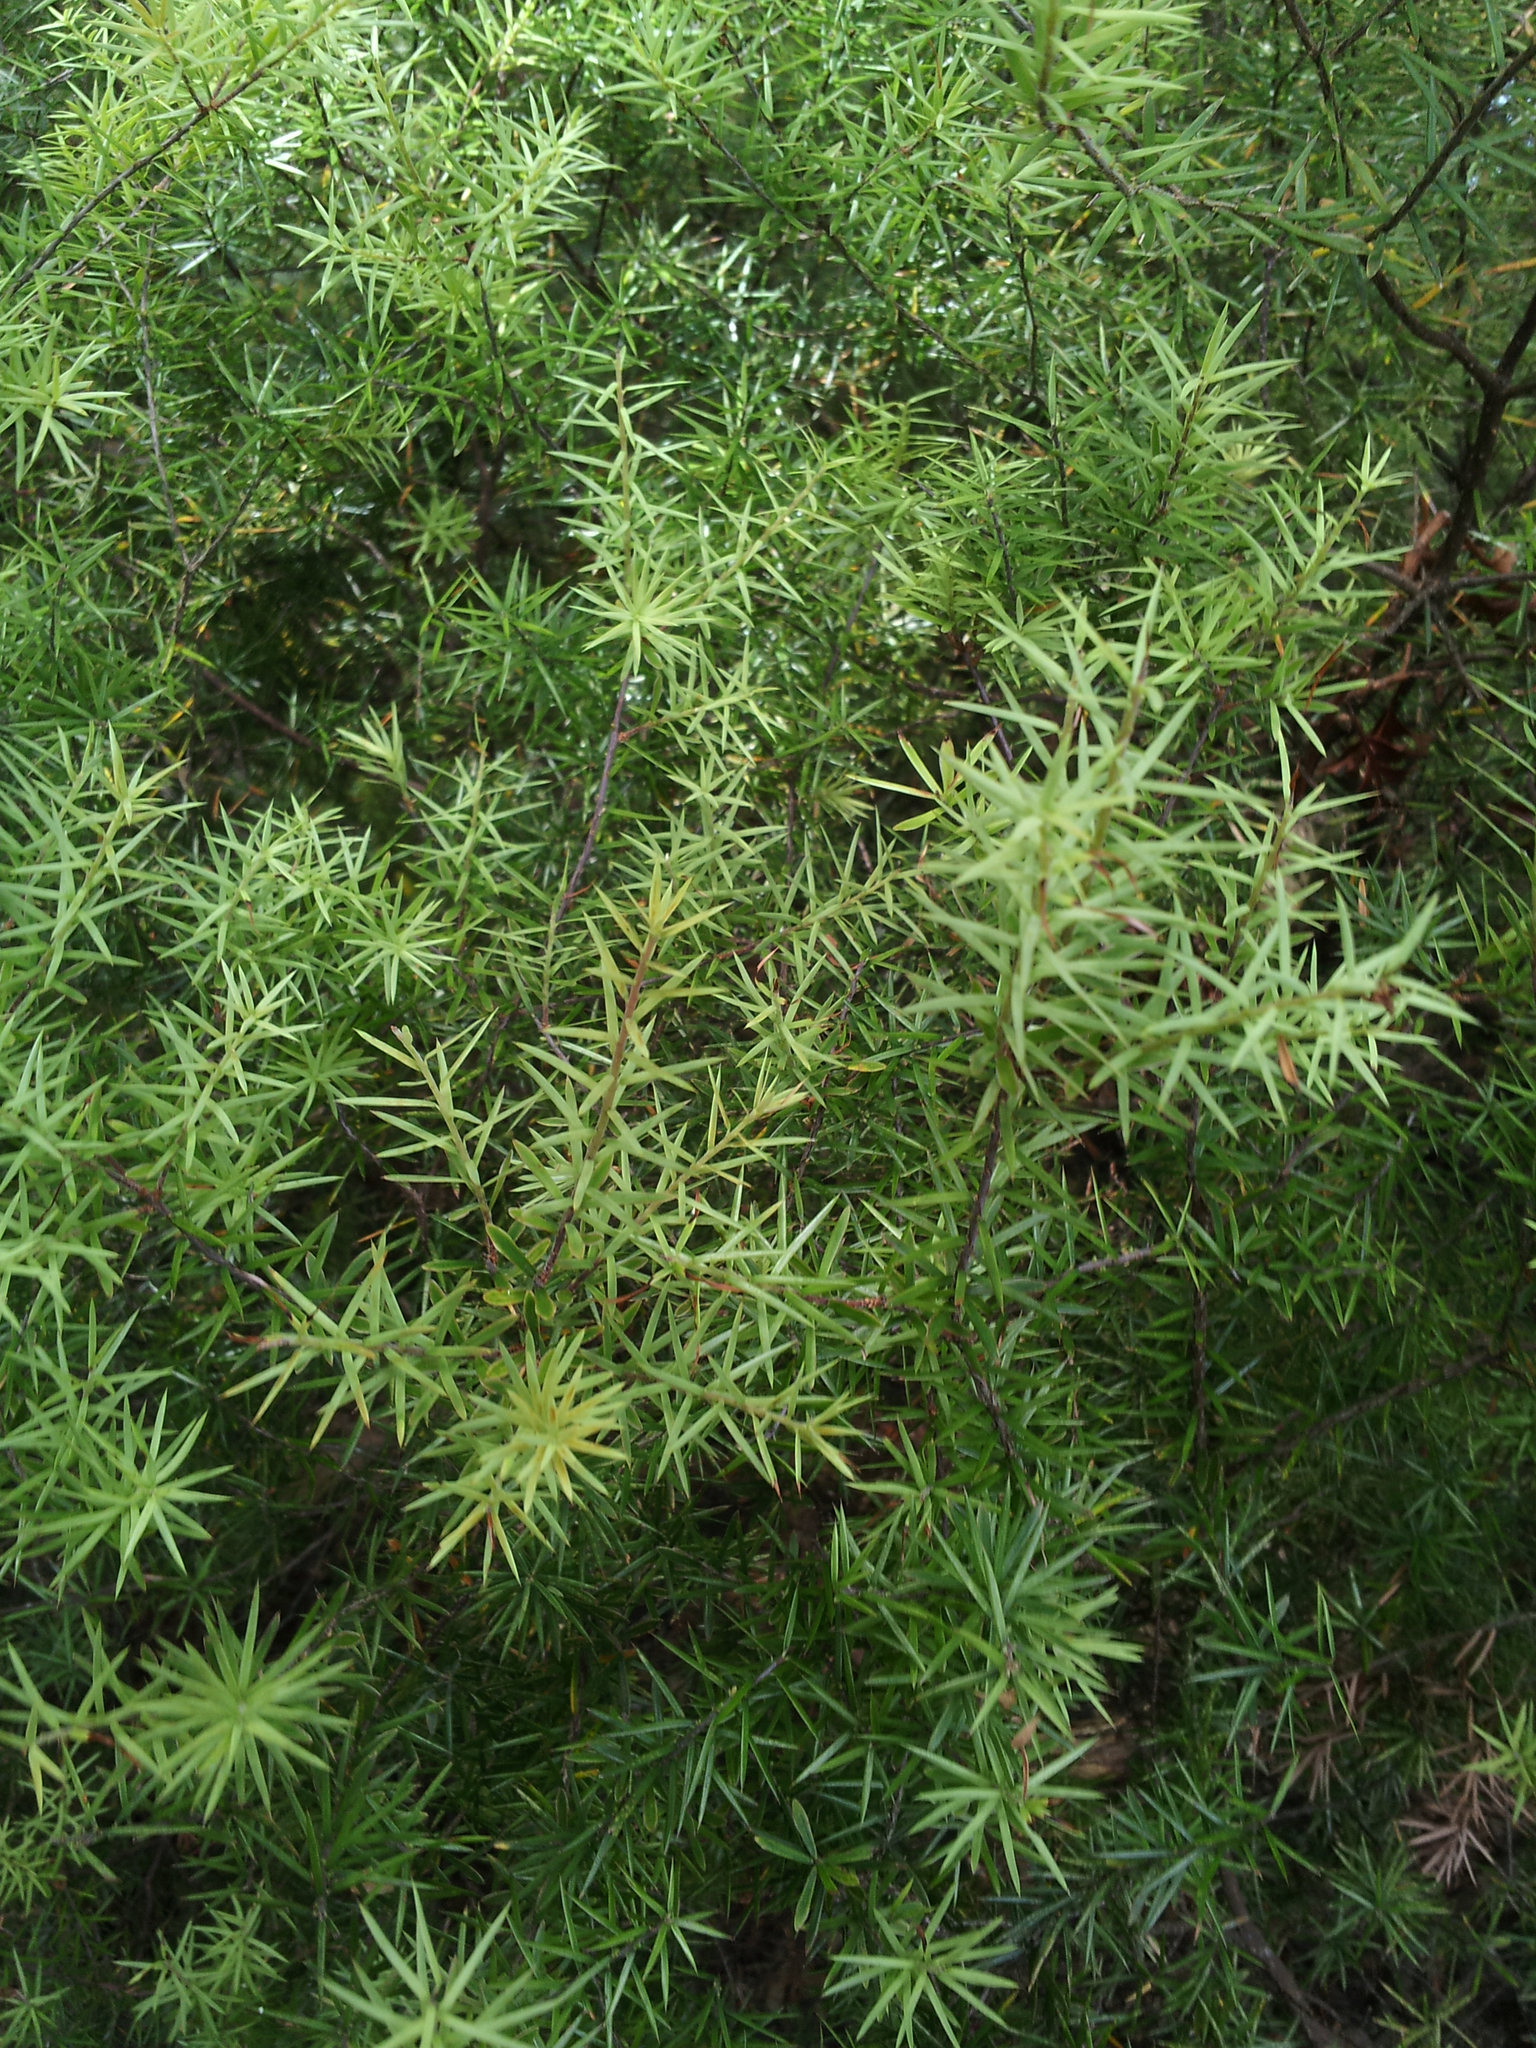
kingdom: Plantae
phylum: Tracheophyta
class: Magnoliopsida
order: Ericales
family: Ericaceae
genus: Leptecophylla
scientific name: Leptecophylla juniperina
